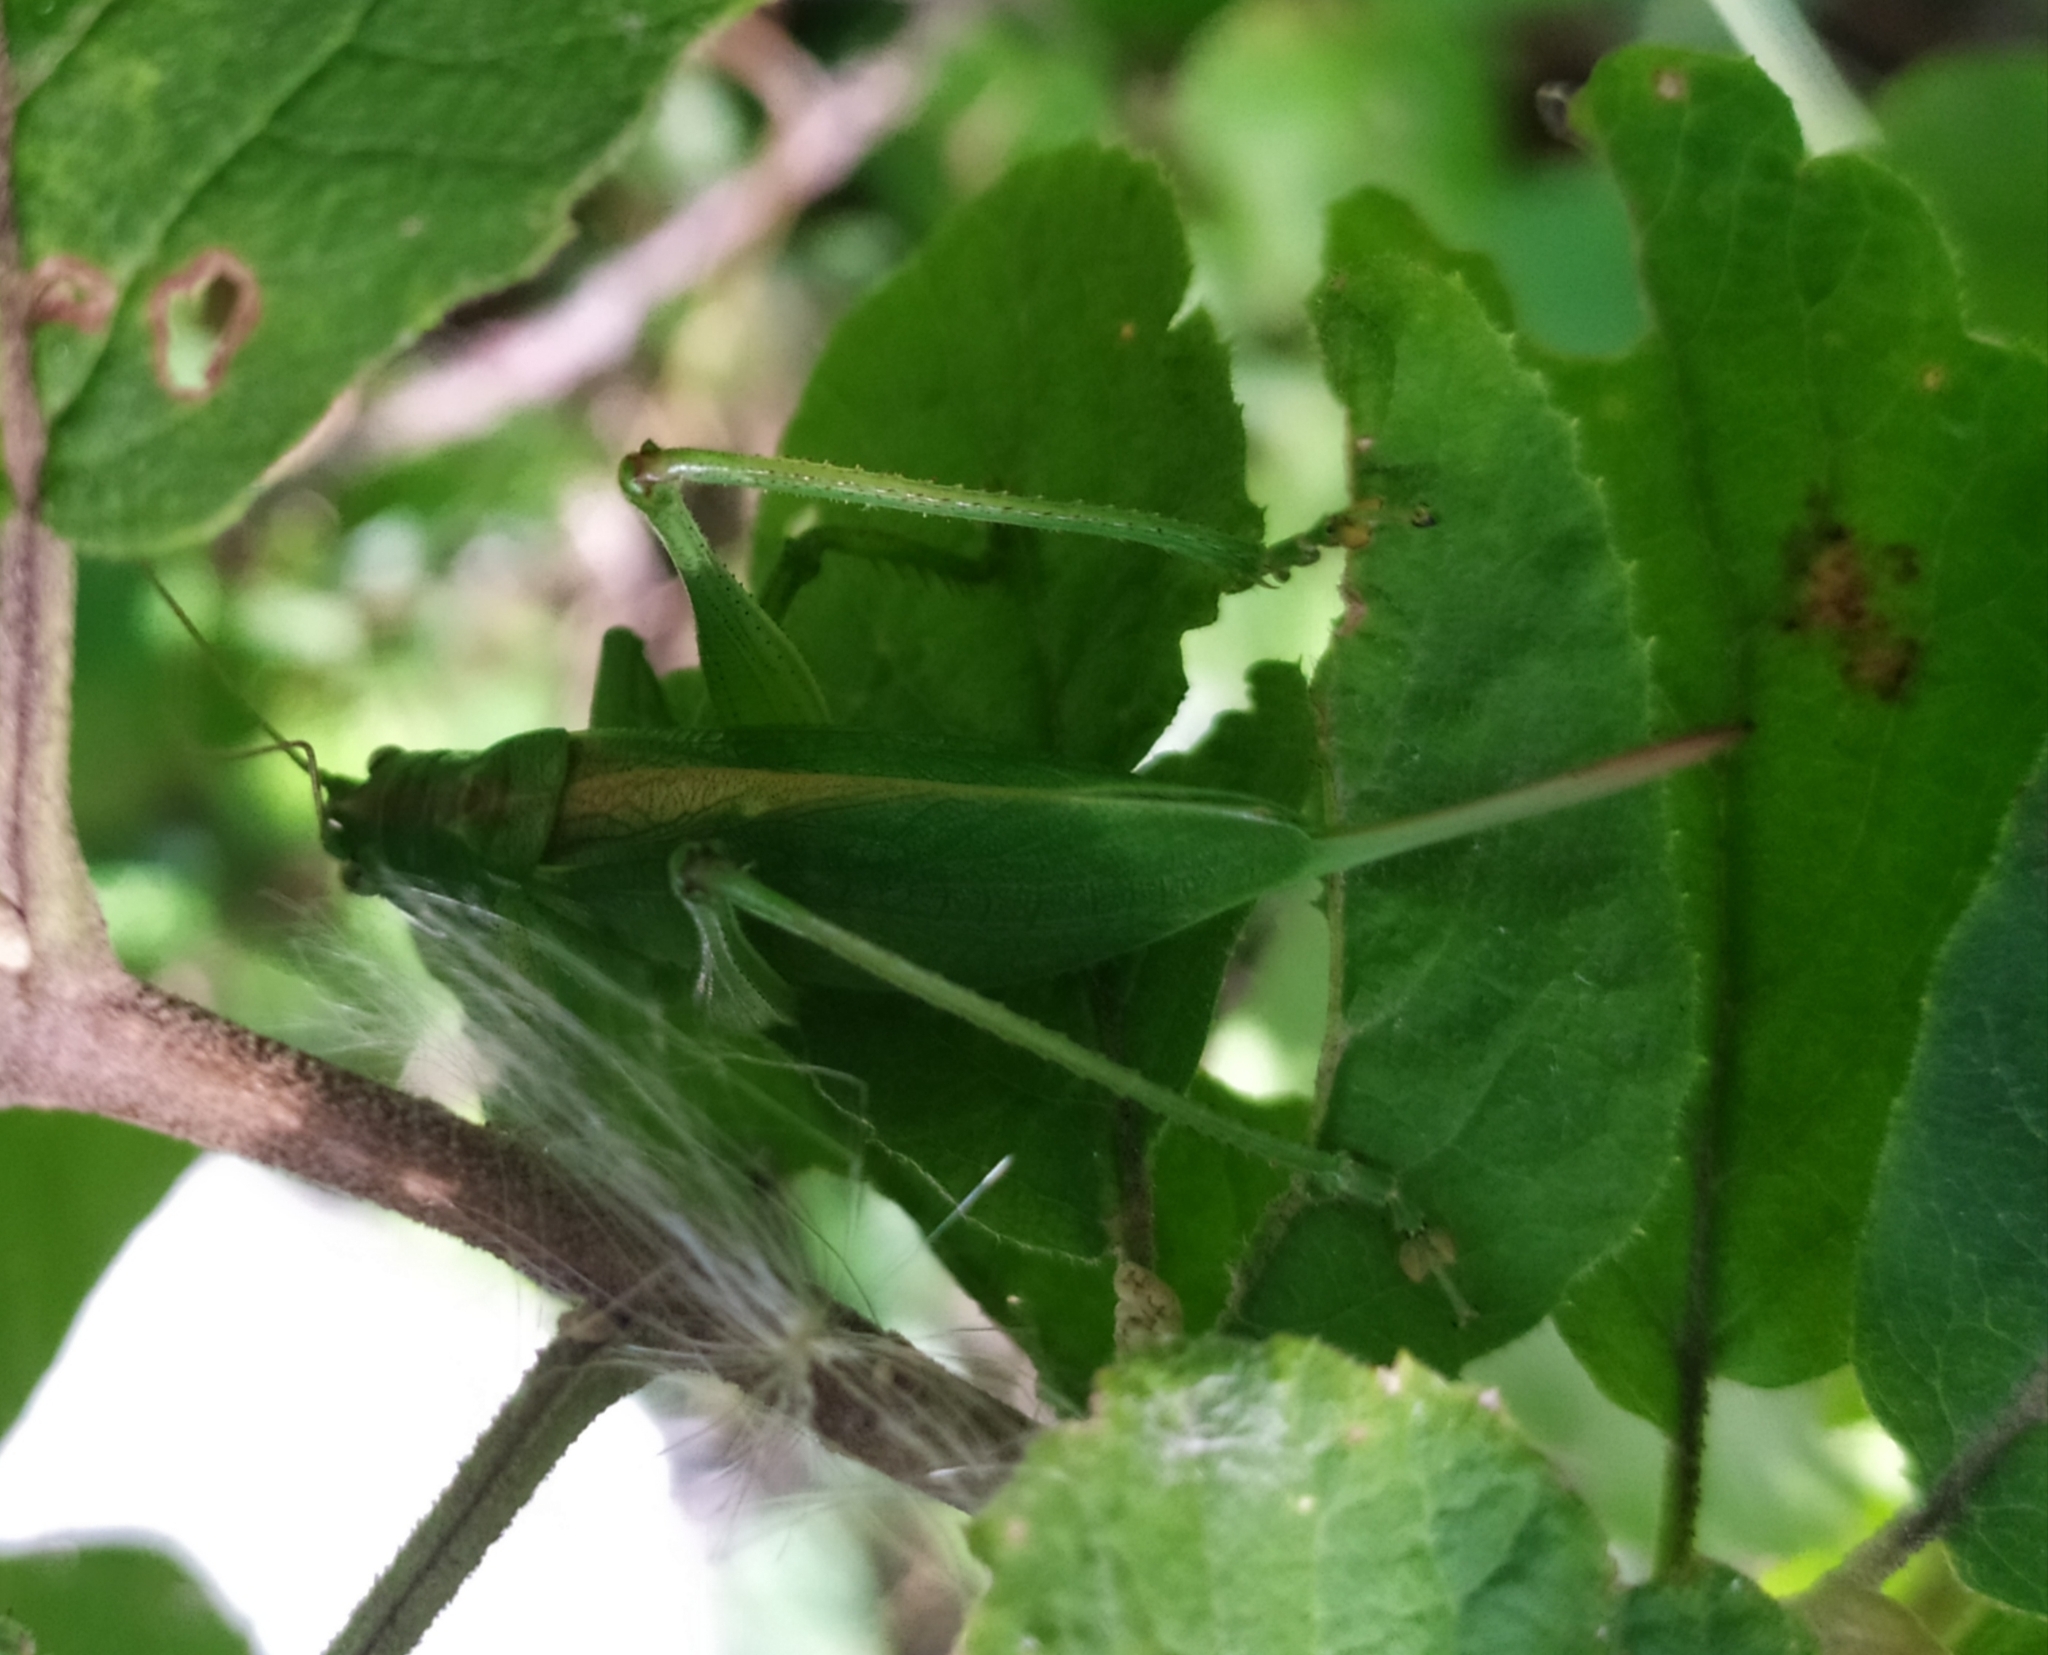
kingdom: Animalia
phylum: Arthropoda
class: Insecta
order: Orthoptera
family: Tettigoniidae
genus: Tettigonia
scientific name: Tettigonia cantans
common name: Upland green bush-cricket
